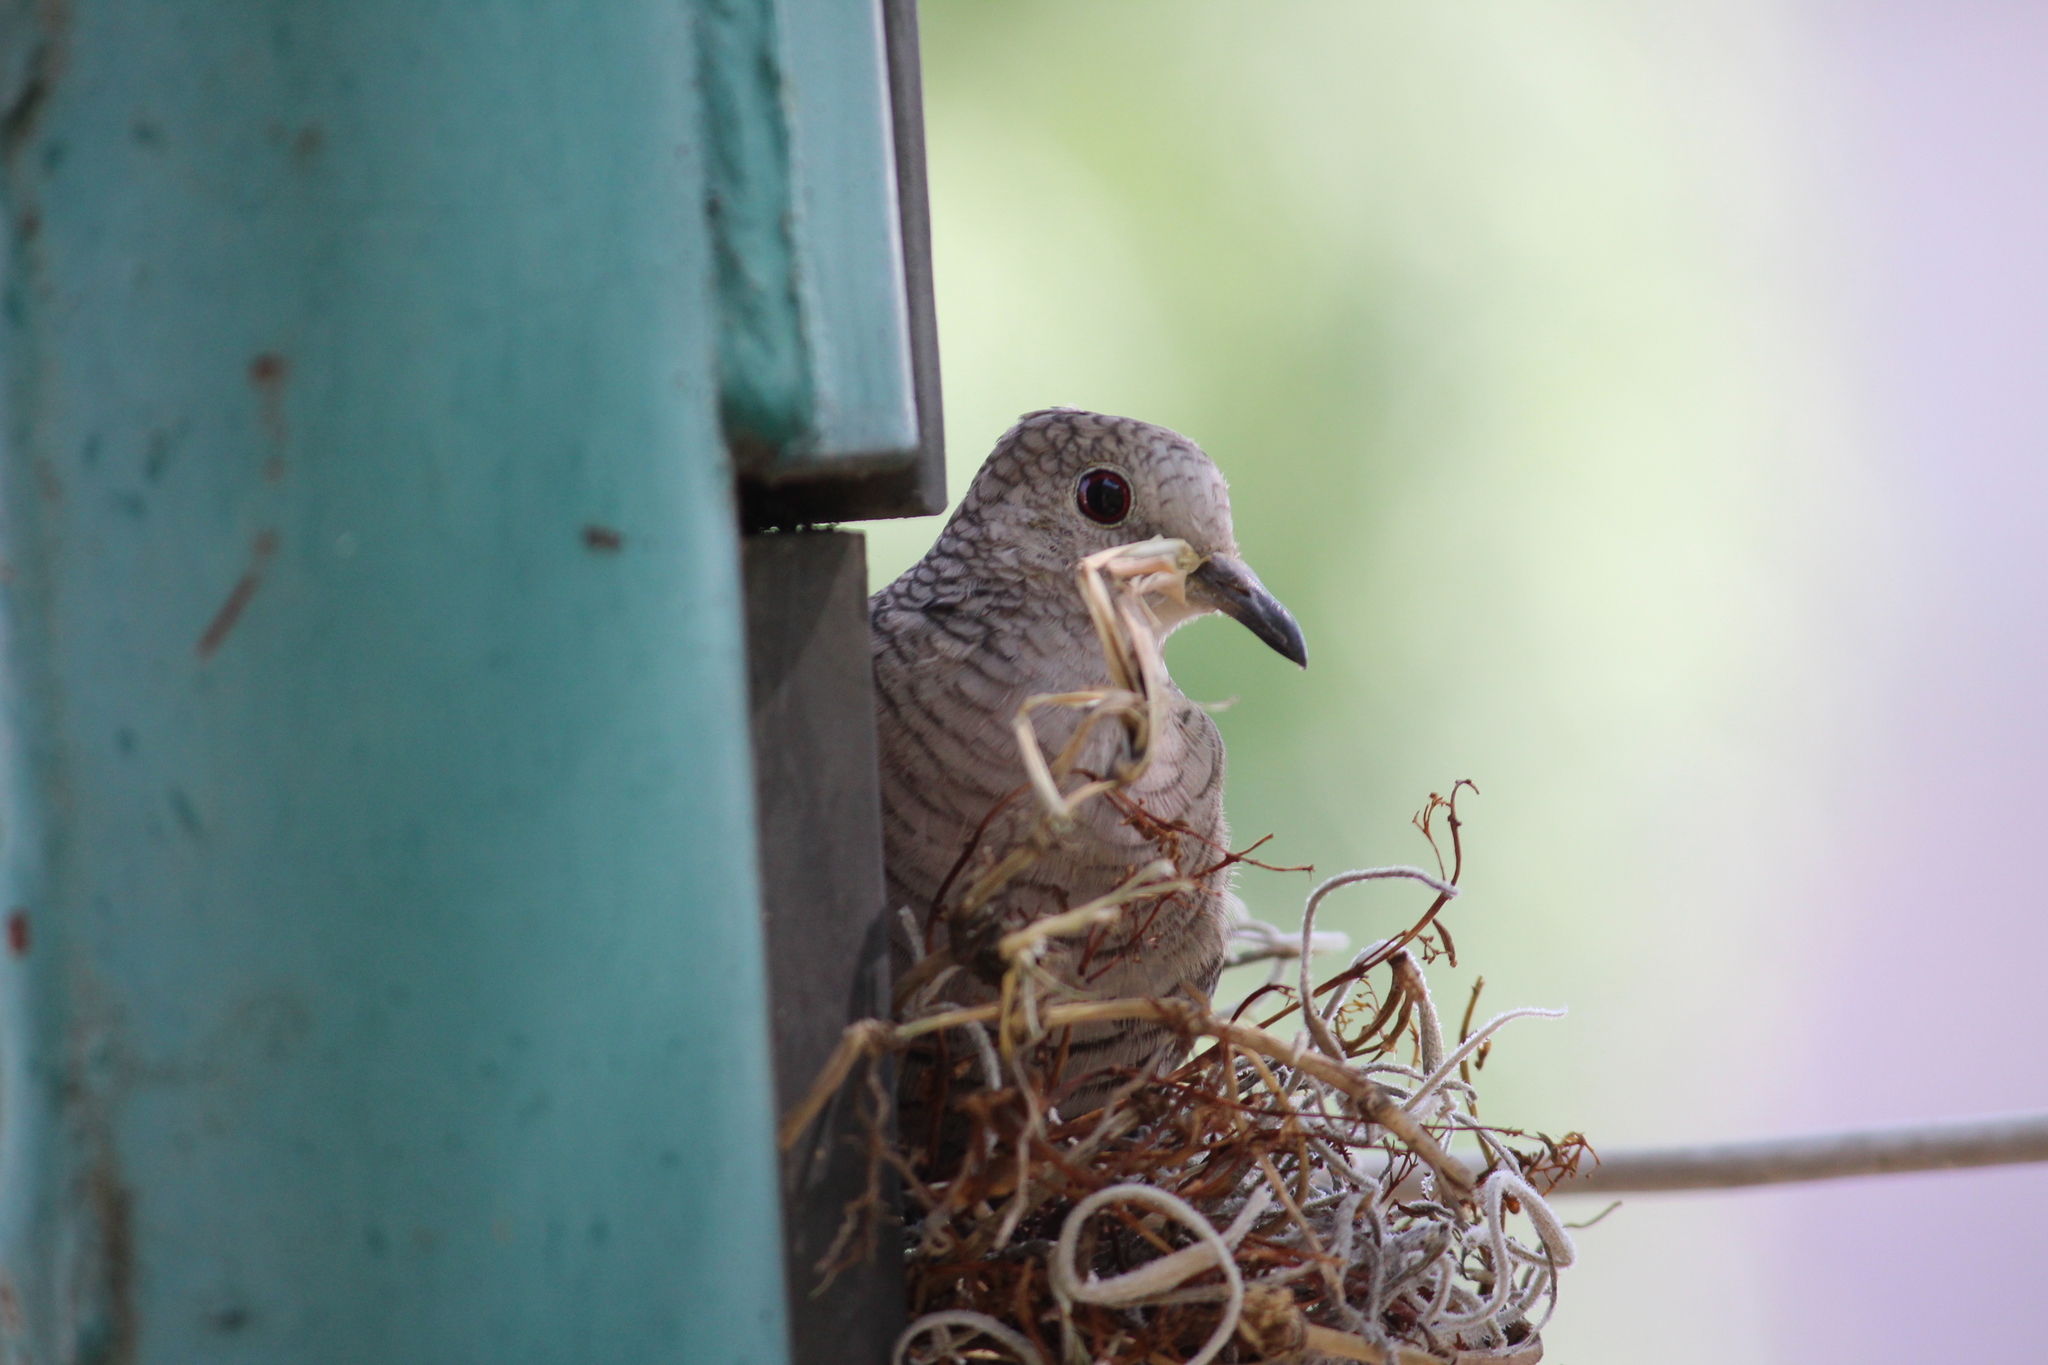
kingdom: Animalia
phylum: Chordata
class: Aves
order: Columbiformes
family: Columbidae
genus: Columbina
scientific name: Columbina inca
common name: Inca dove
